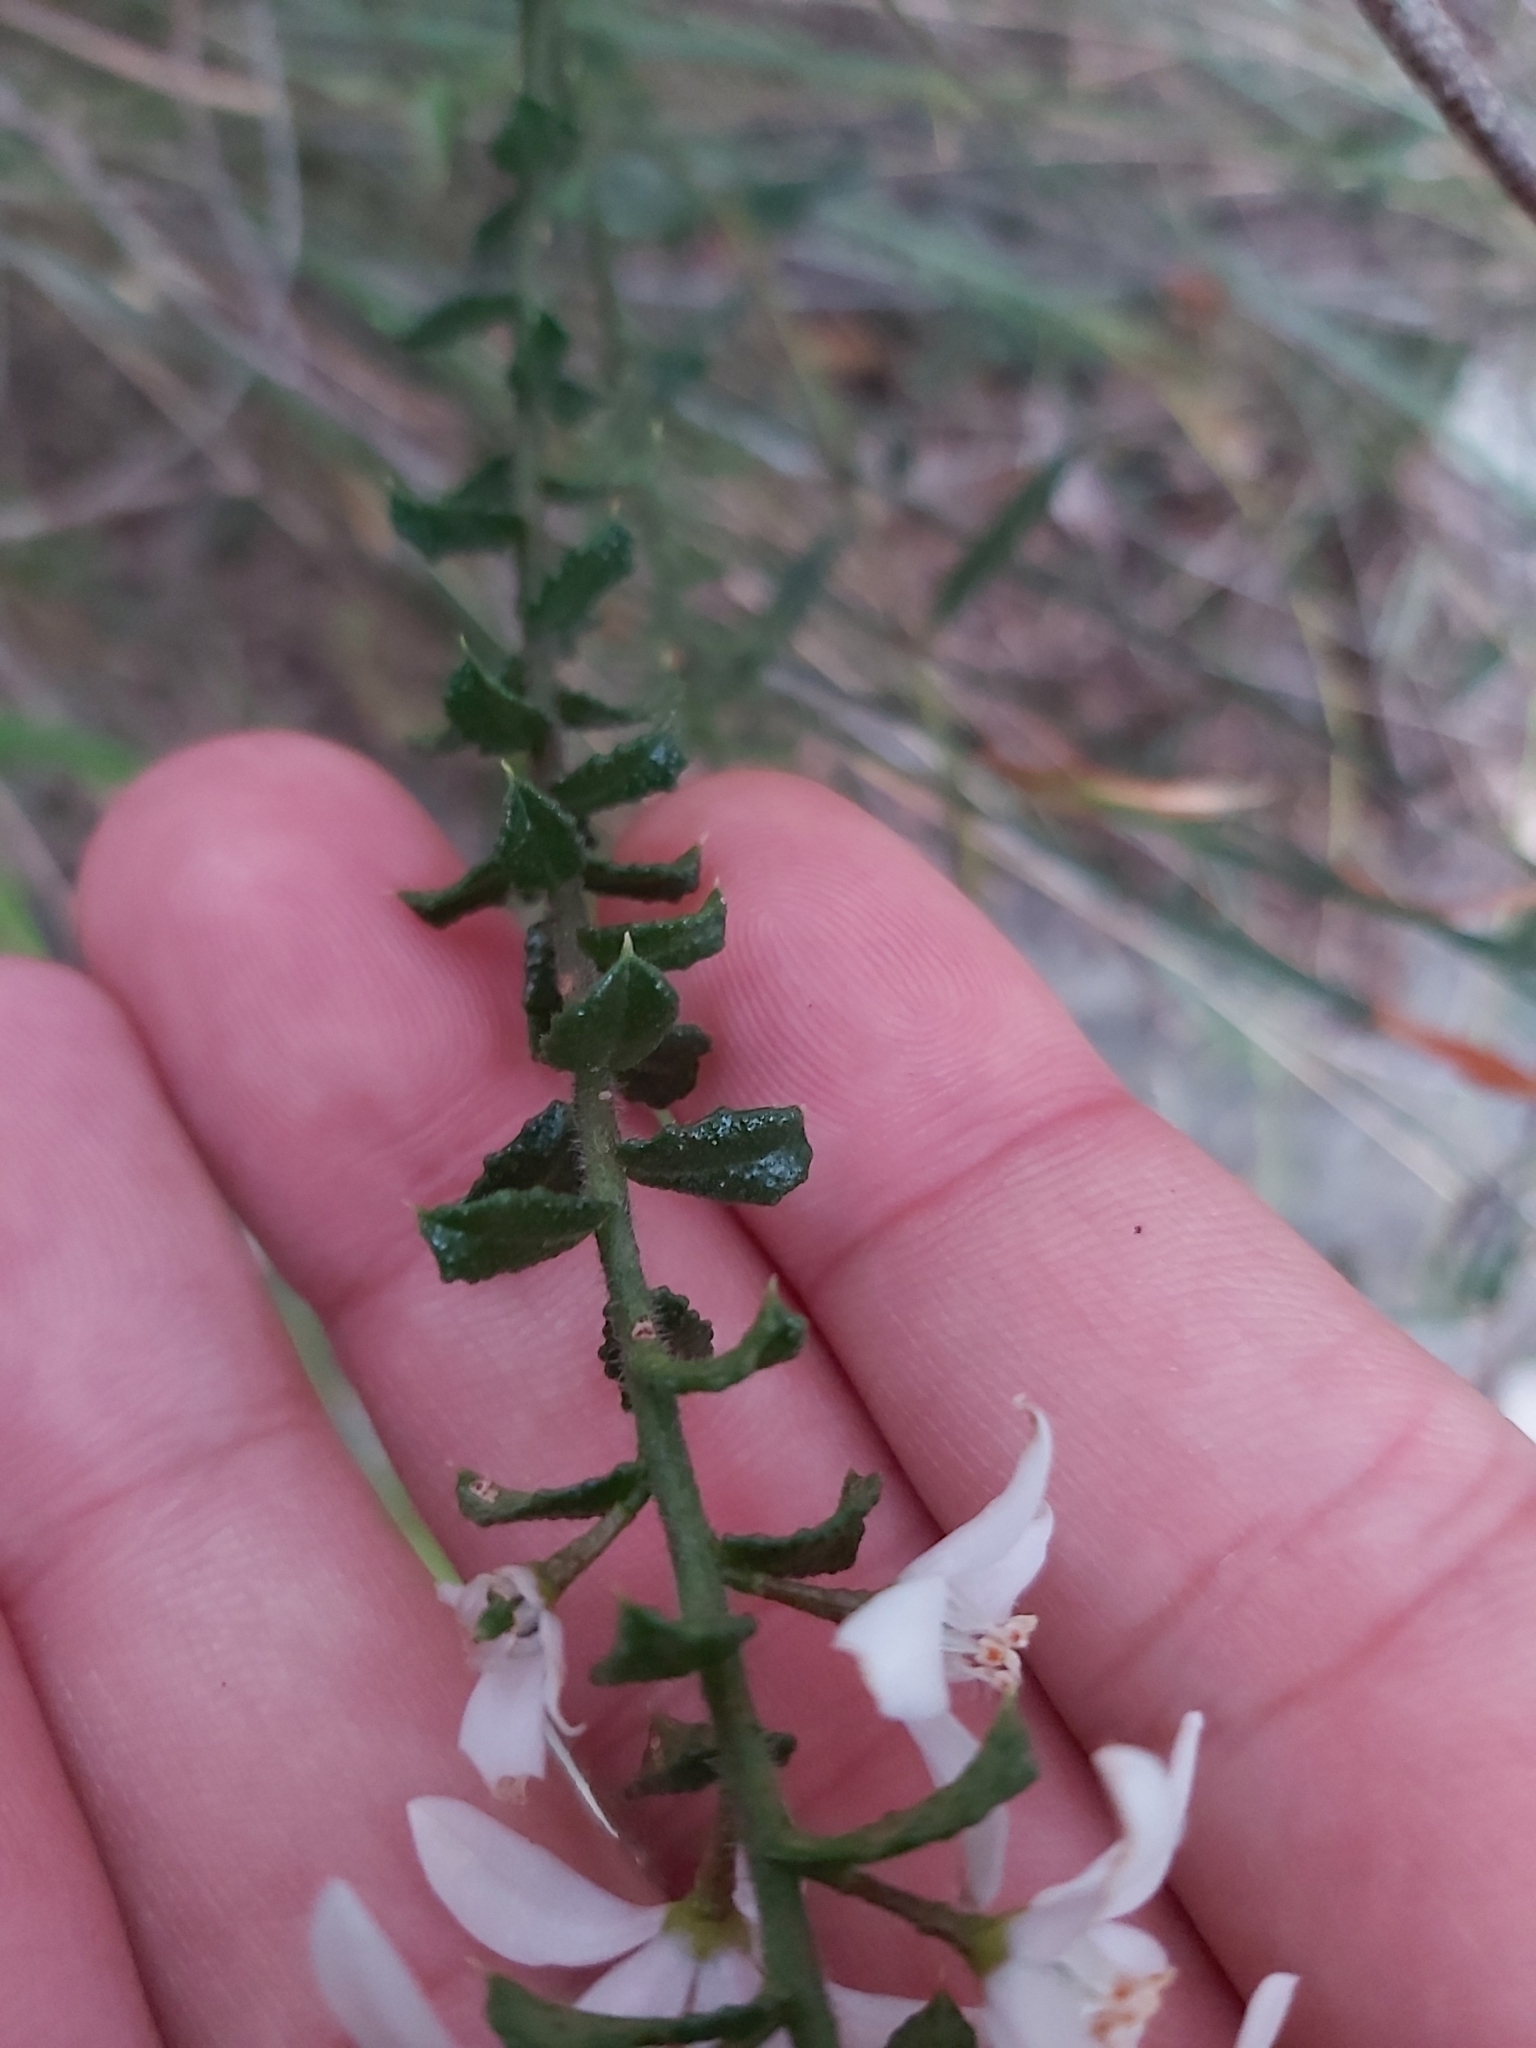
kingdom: Plantae
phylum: Tracheophyta
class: Magnoliopsida
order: Sapindales
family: Rutaceae
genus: Philotheca
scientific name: Philotheca hispidula
